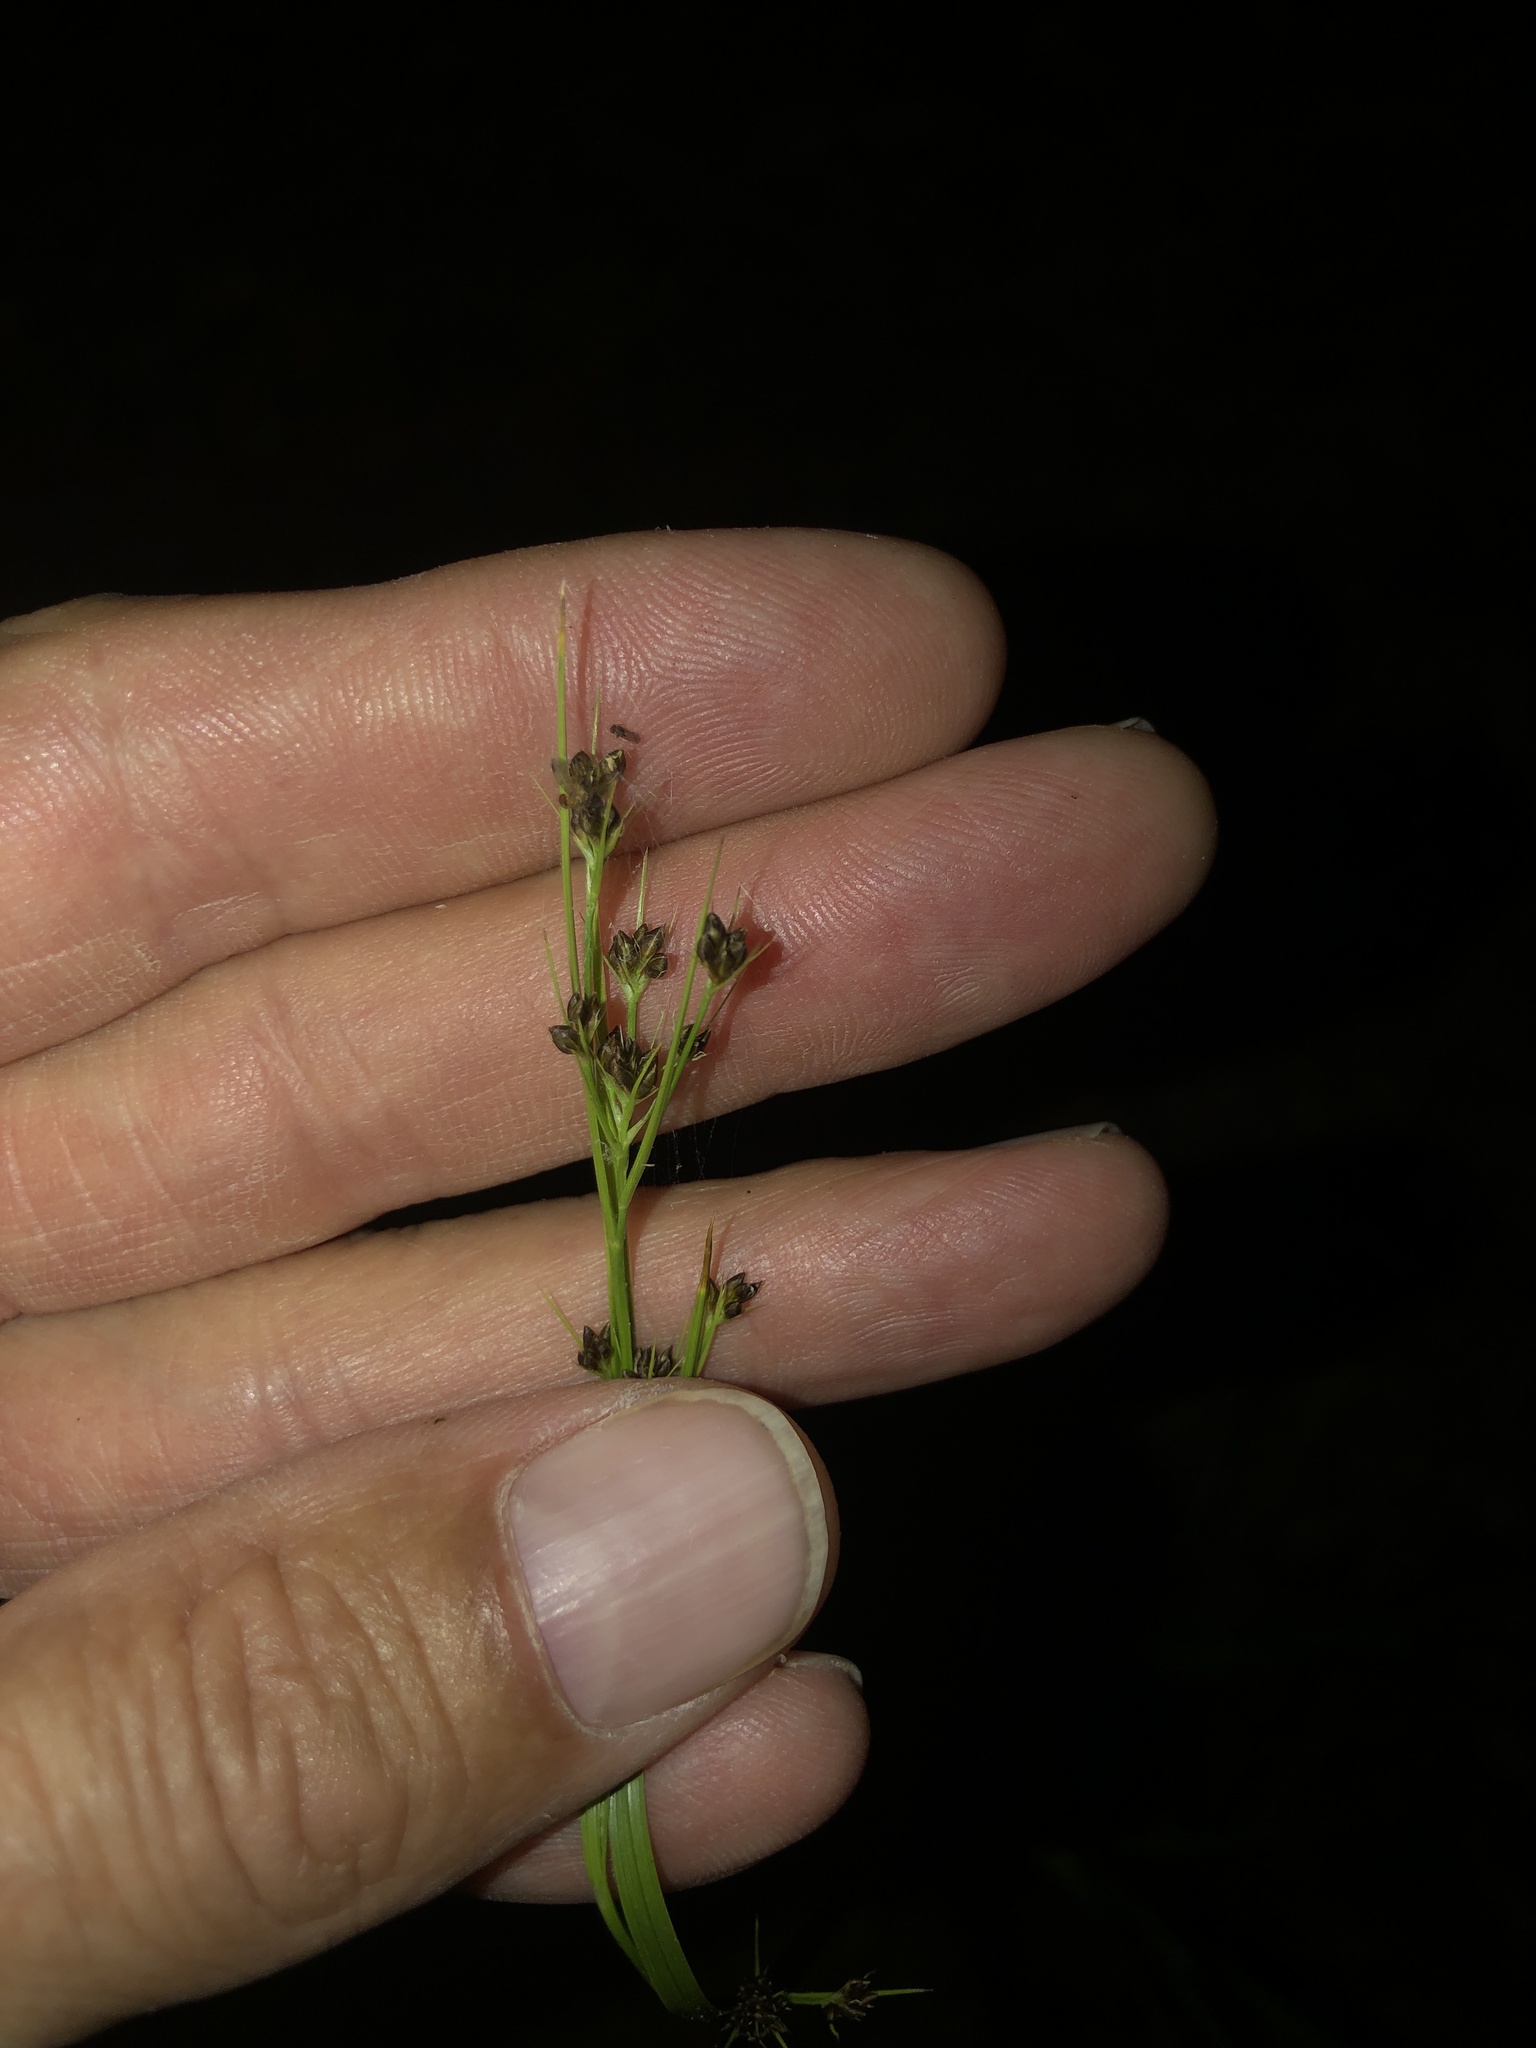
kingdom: Plantae
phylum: Tracheophyta
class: Liliopsida
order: Poales
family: Cyperaceae
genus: Rhynchospora
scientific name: Rhynchospora recognita
